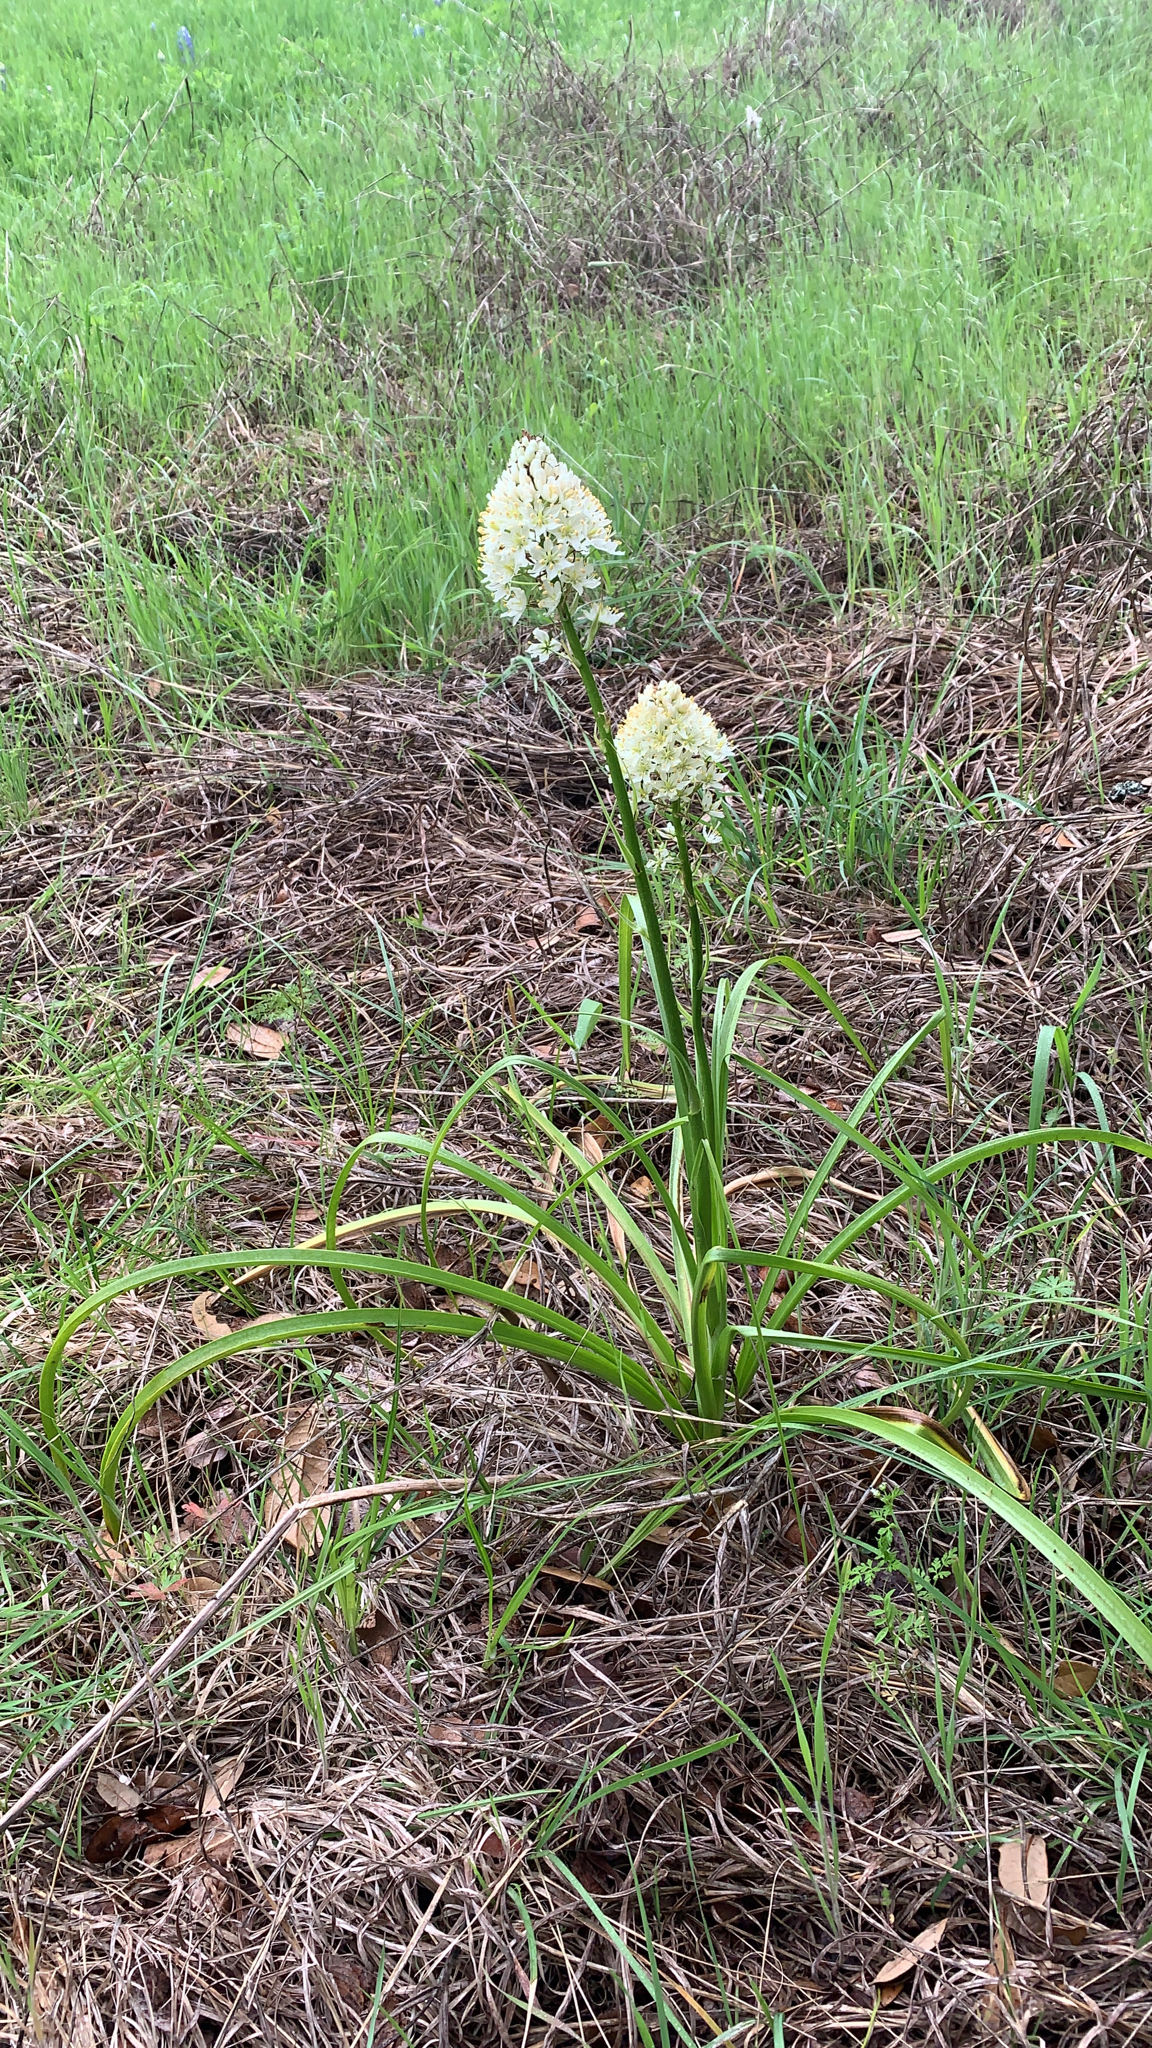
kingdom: Plantae
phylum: Tracheophyta
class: Liliopsida
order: Liliales
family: Melanthiaceae
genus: Toxicoscordion
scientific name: Toxicoscordion nuttallii
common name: Poison sego
